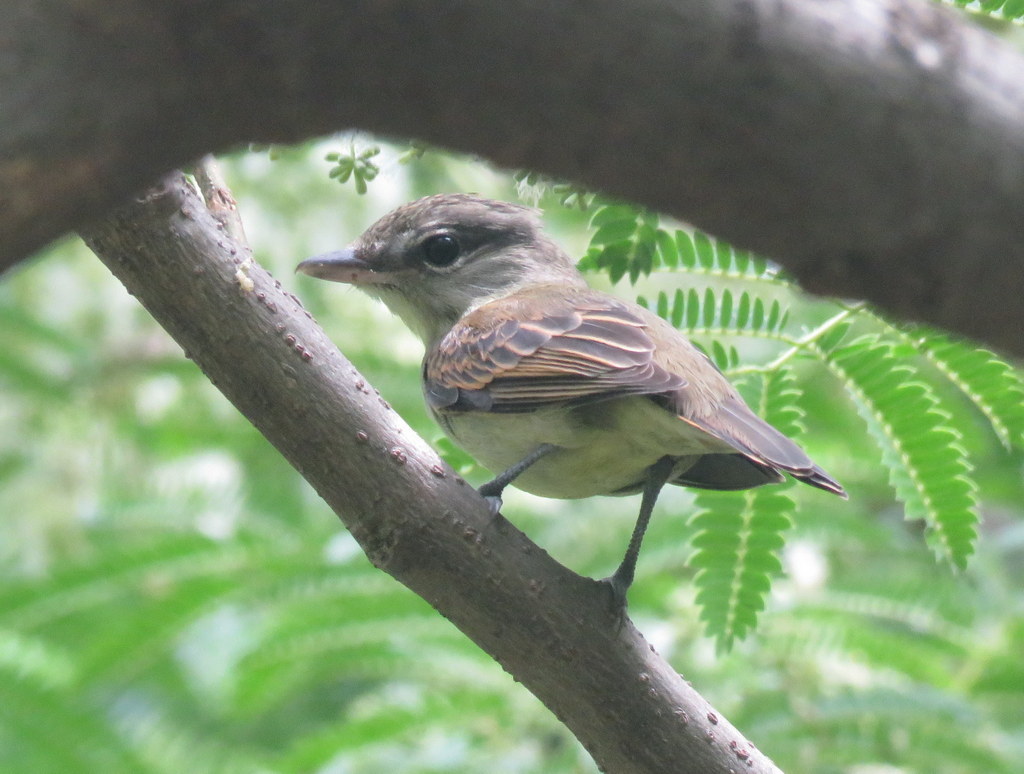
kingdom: Animalia
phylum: Chordata
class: Aves
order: Passeriformes
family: Cotingidae
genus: Pachyramphus
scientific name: Pachyramphus polychopterus
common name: White-winged becard
